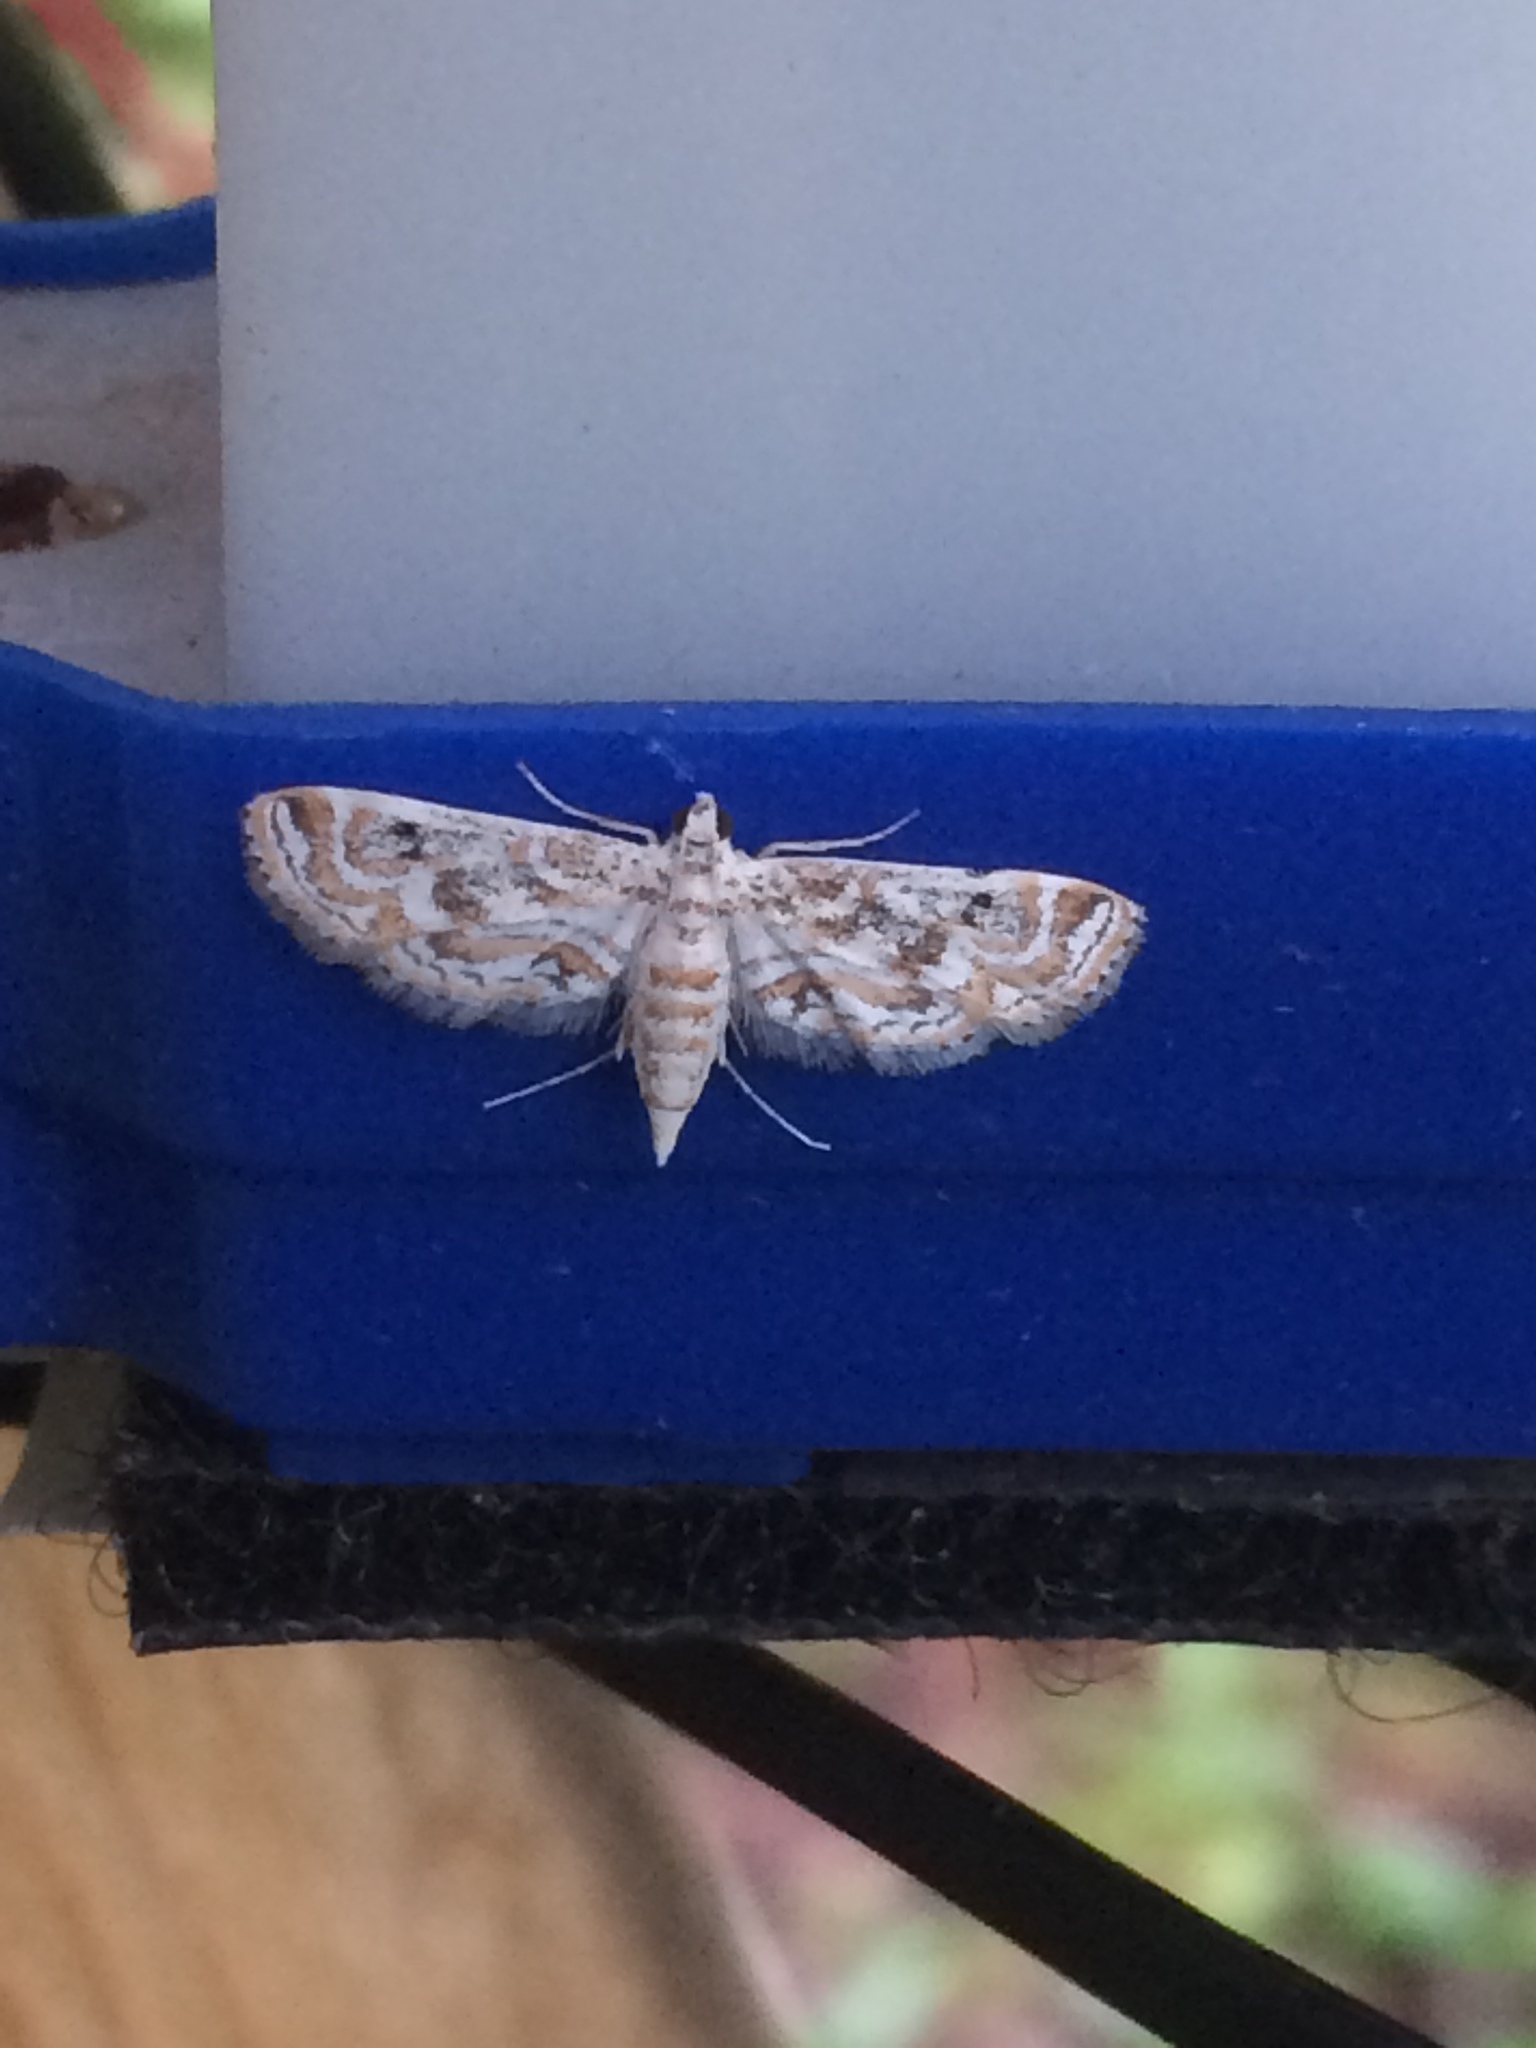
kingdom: Animalia
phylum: Arthropoda
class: Insecta
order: Lepidoptera
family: Crambidae
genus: Parapoynx
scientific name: Parapoynx diminutalis
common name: Hydrilla leafcutter
